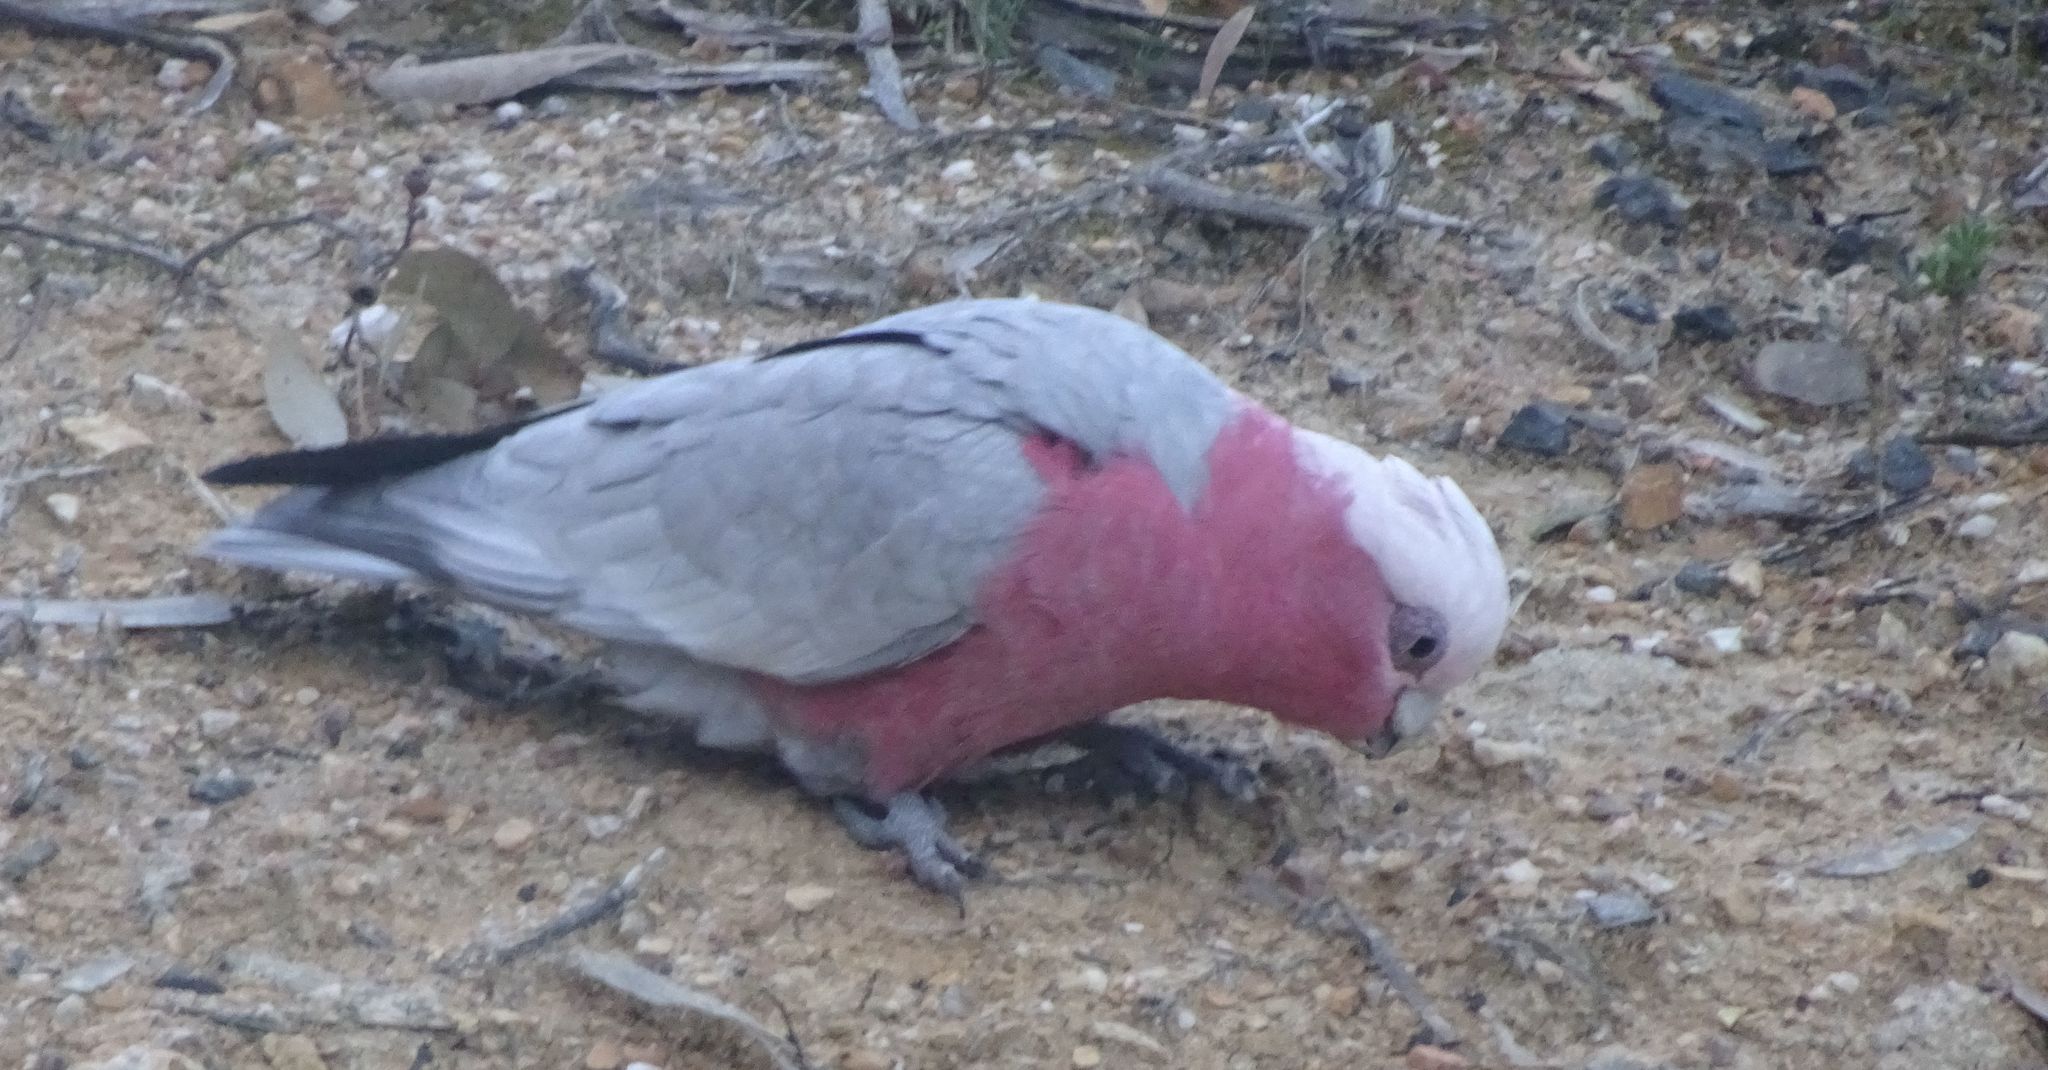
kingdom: Animalia
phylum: Chordata
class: Aves
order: Psittaciformes
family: Psittacidae
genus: Eolophus
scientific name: Eolophus roseicapilla
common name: Galah
